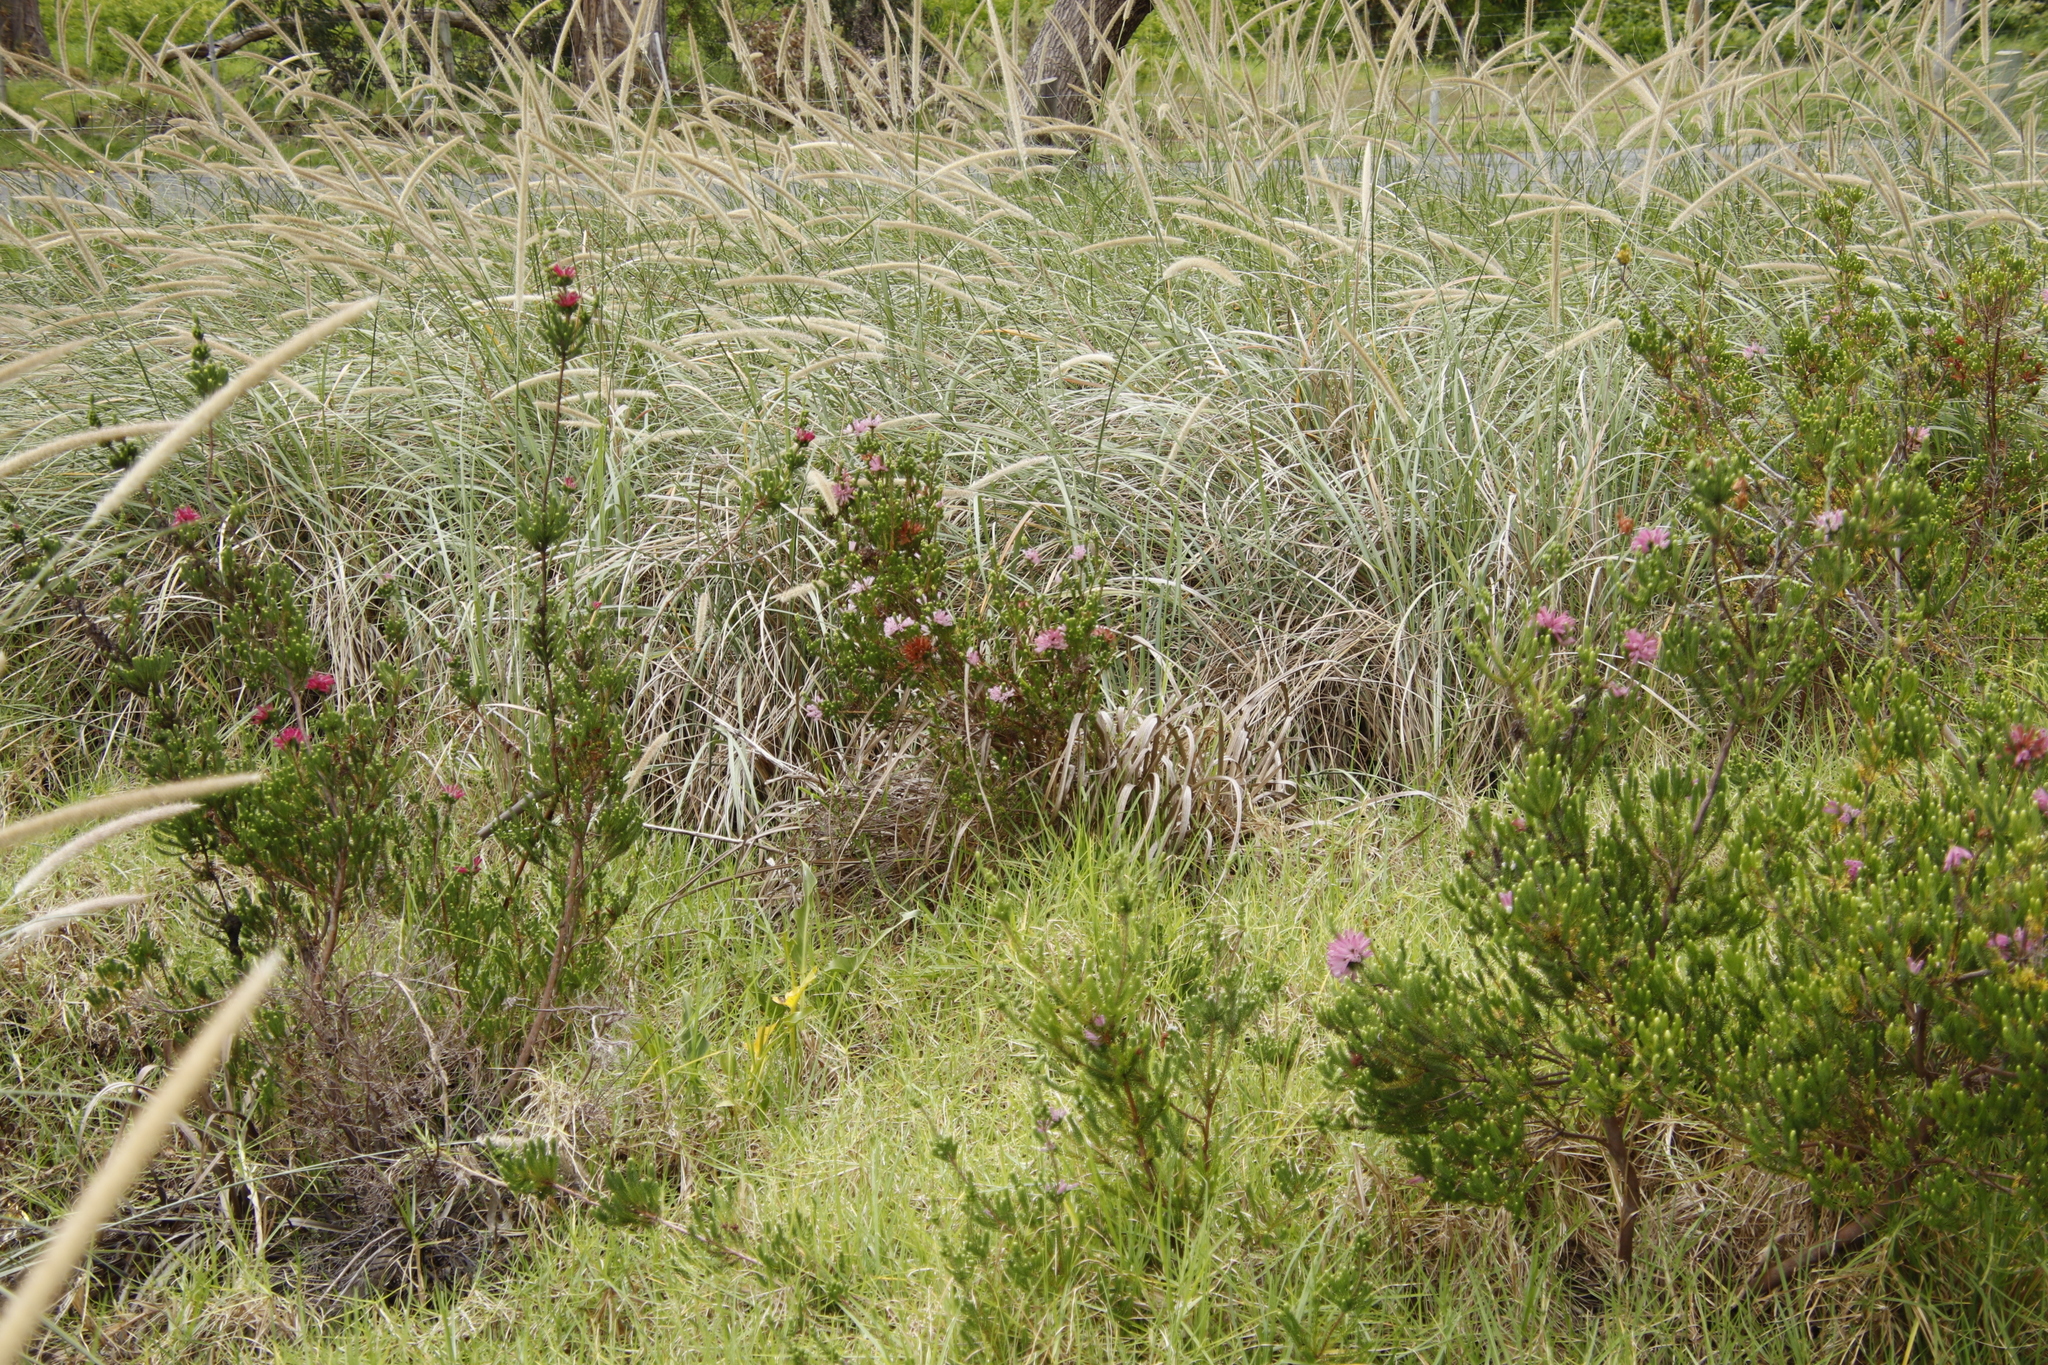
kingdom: Plantae
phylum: Tracheophyta
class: Magnoliopsida
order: Ericales
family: Ericaceae
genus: Erica
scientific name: Erica verticillata
